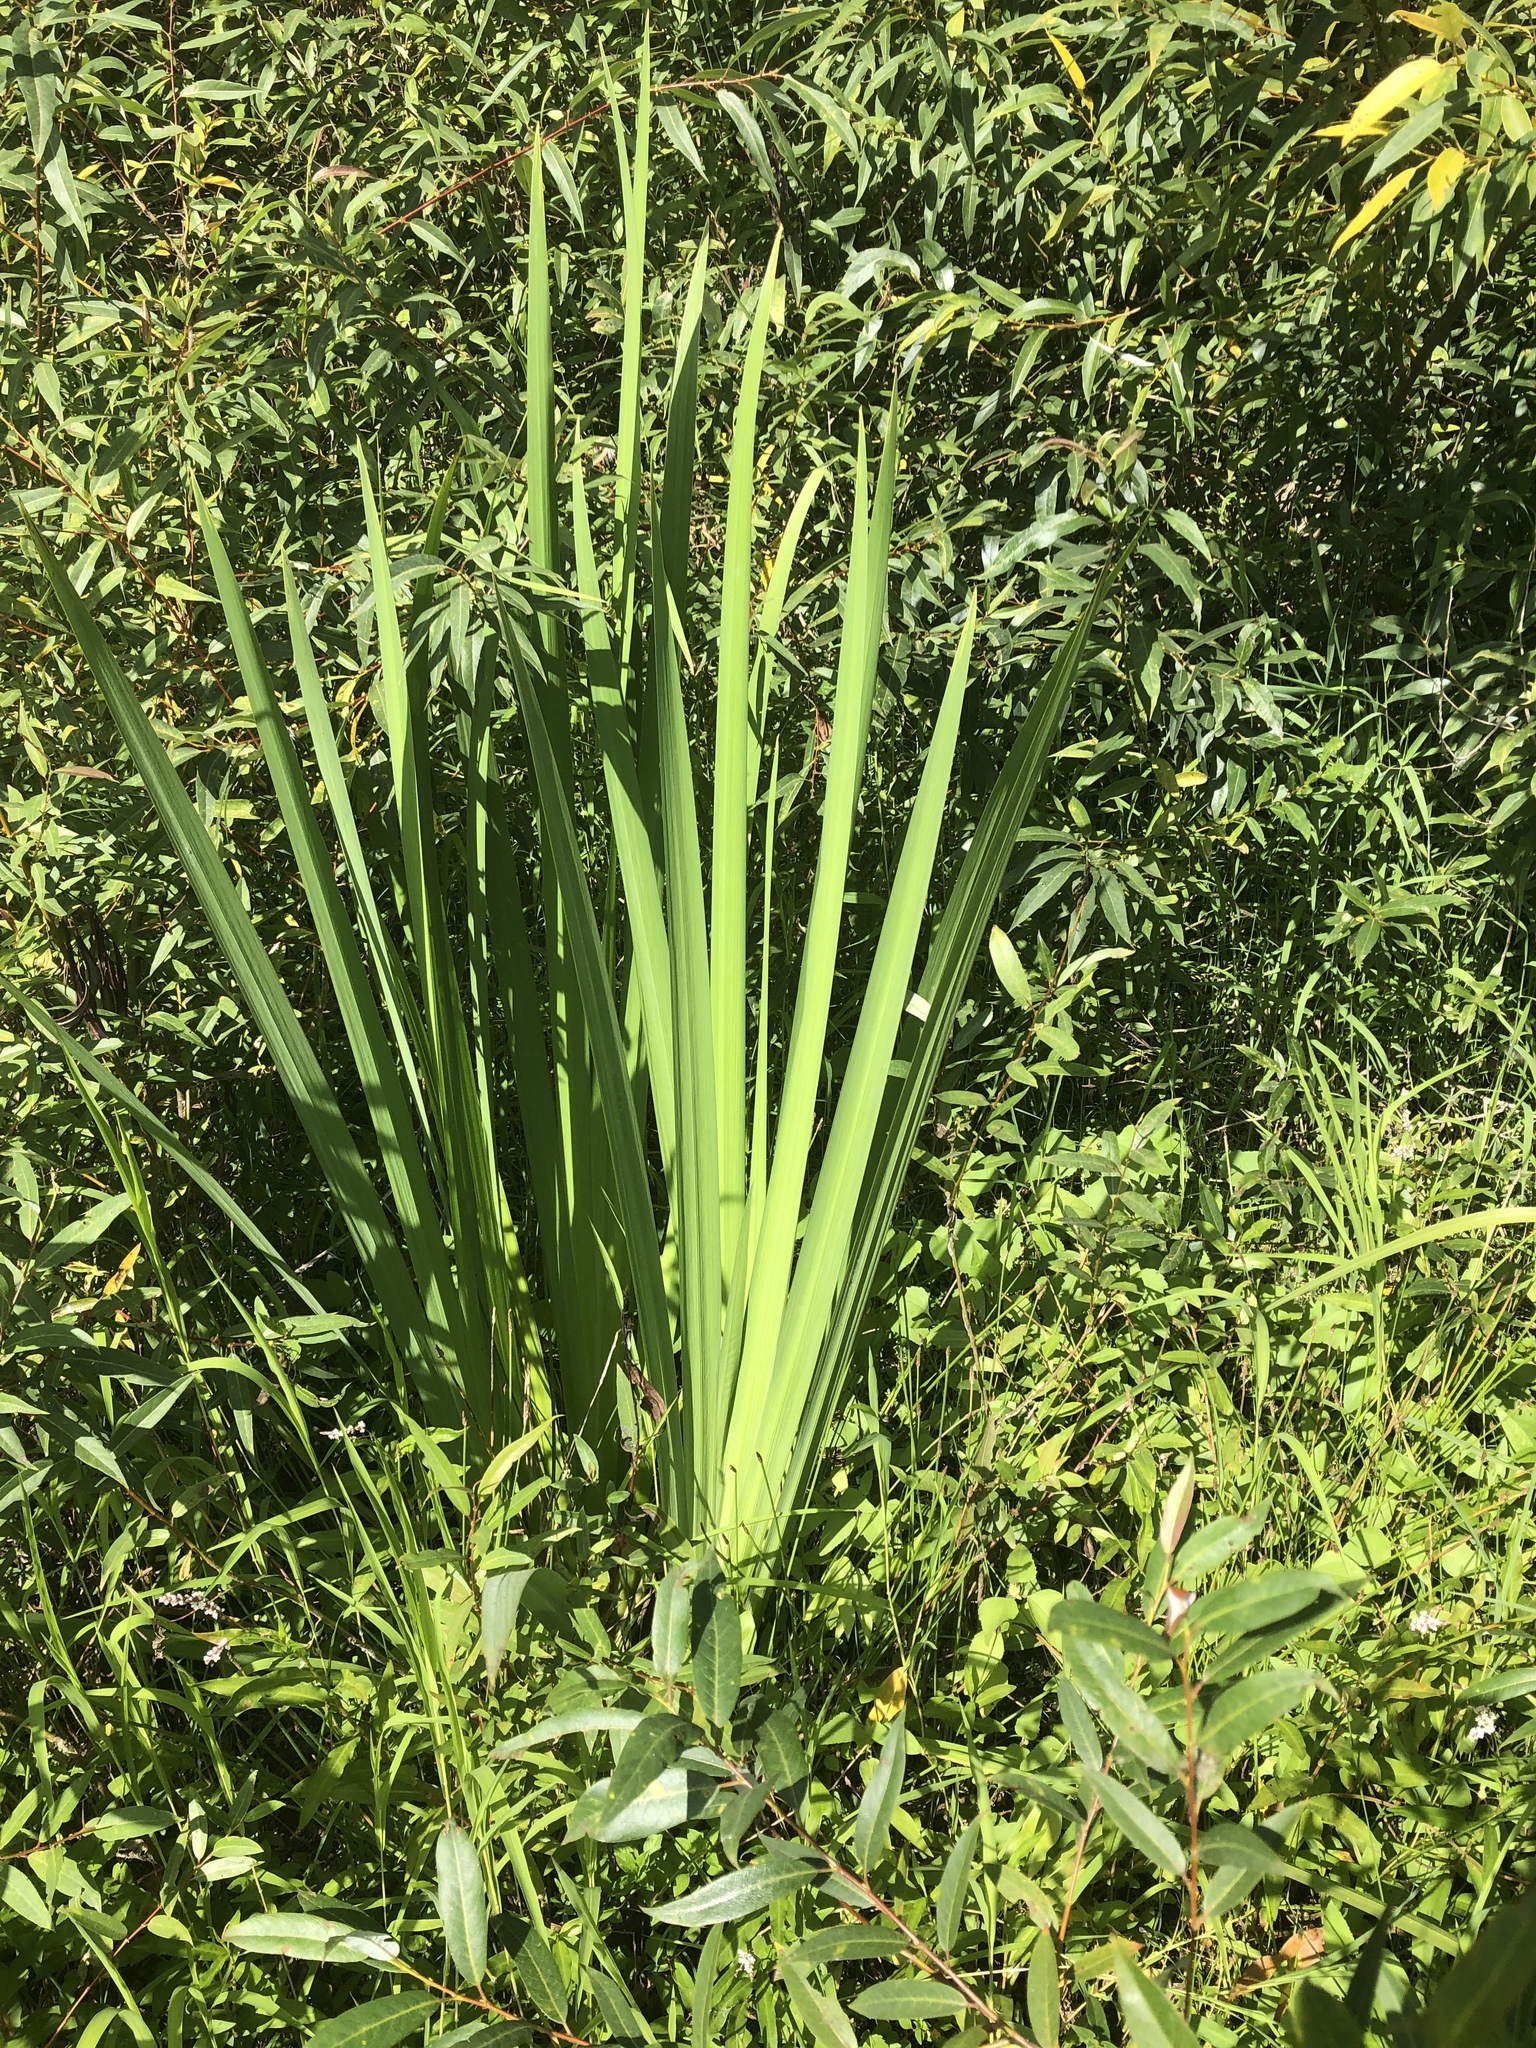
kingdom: Plantae
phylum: Tracheophyta
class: Liliopsida
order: Asparagales
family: Iridaceae
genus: Iris
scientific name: Iris pseudacorus
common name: Yellow flag
